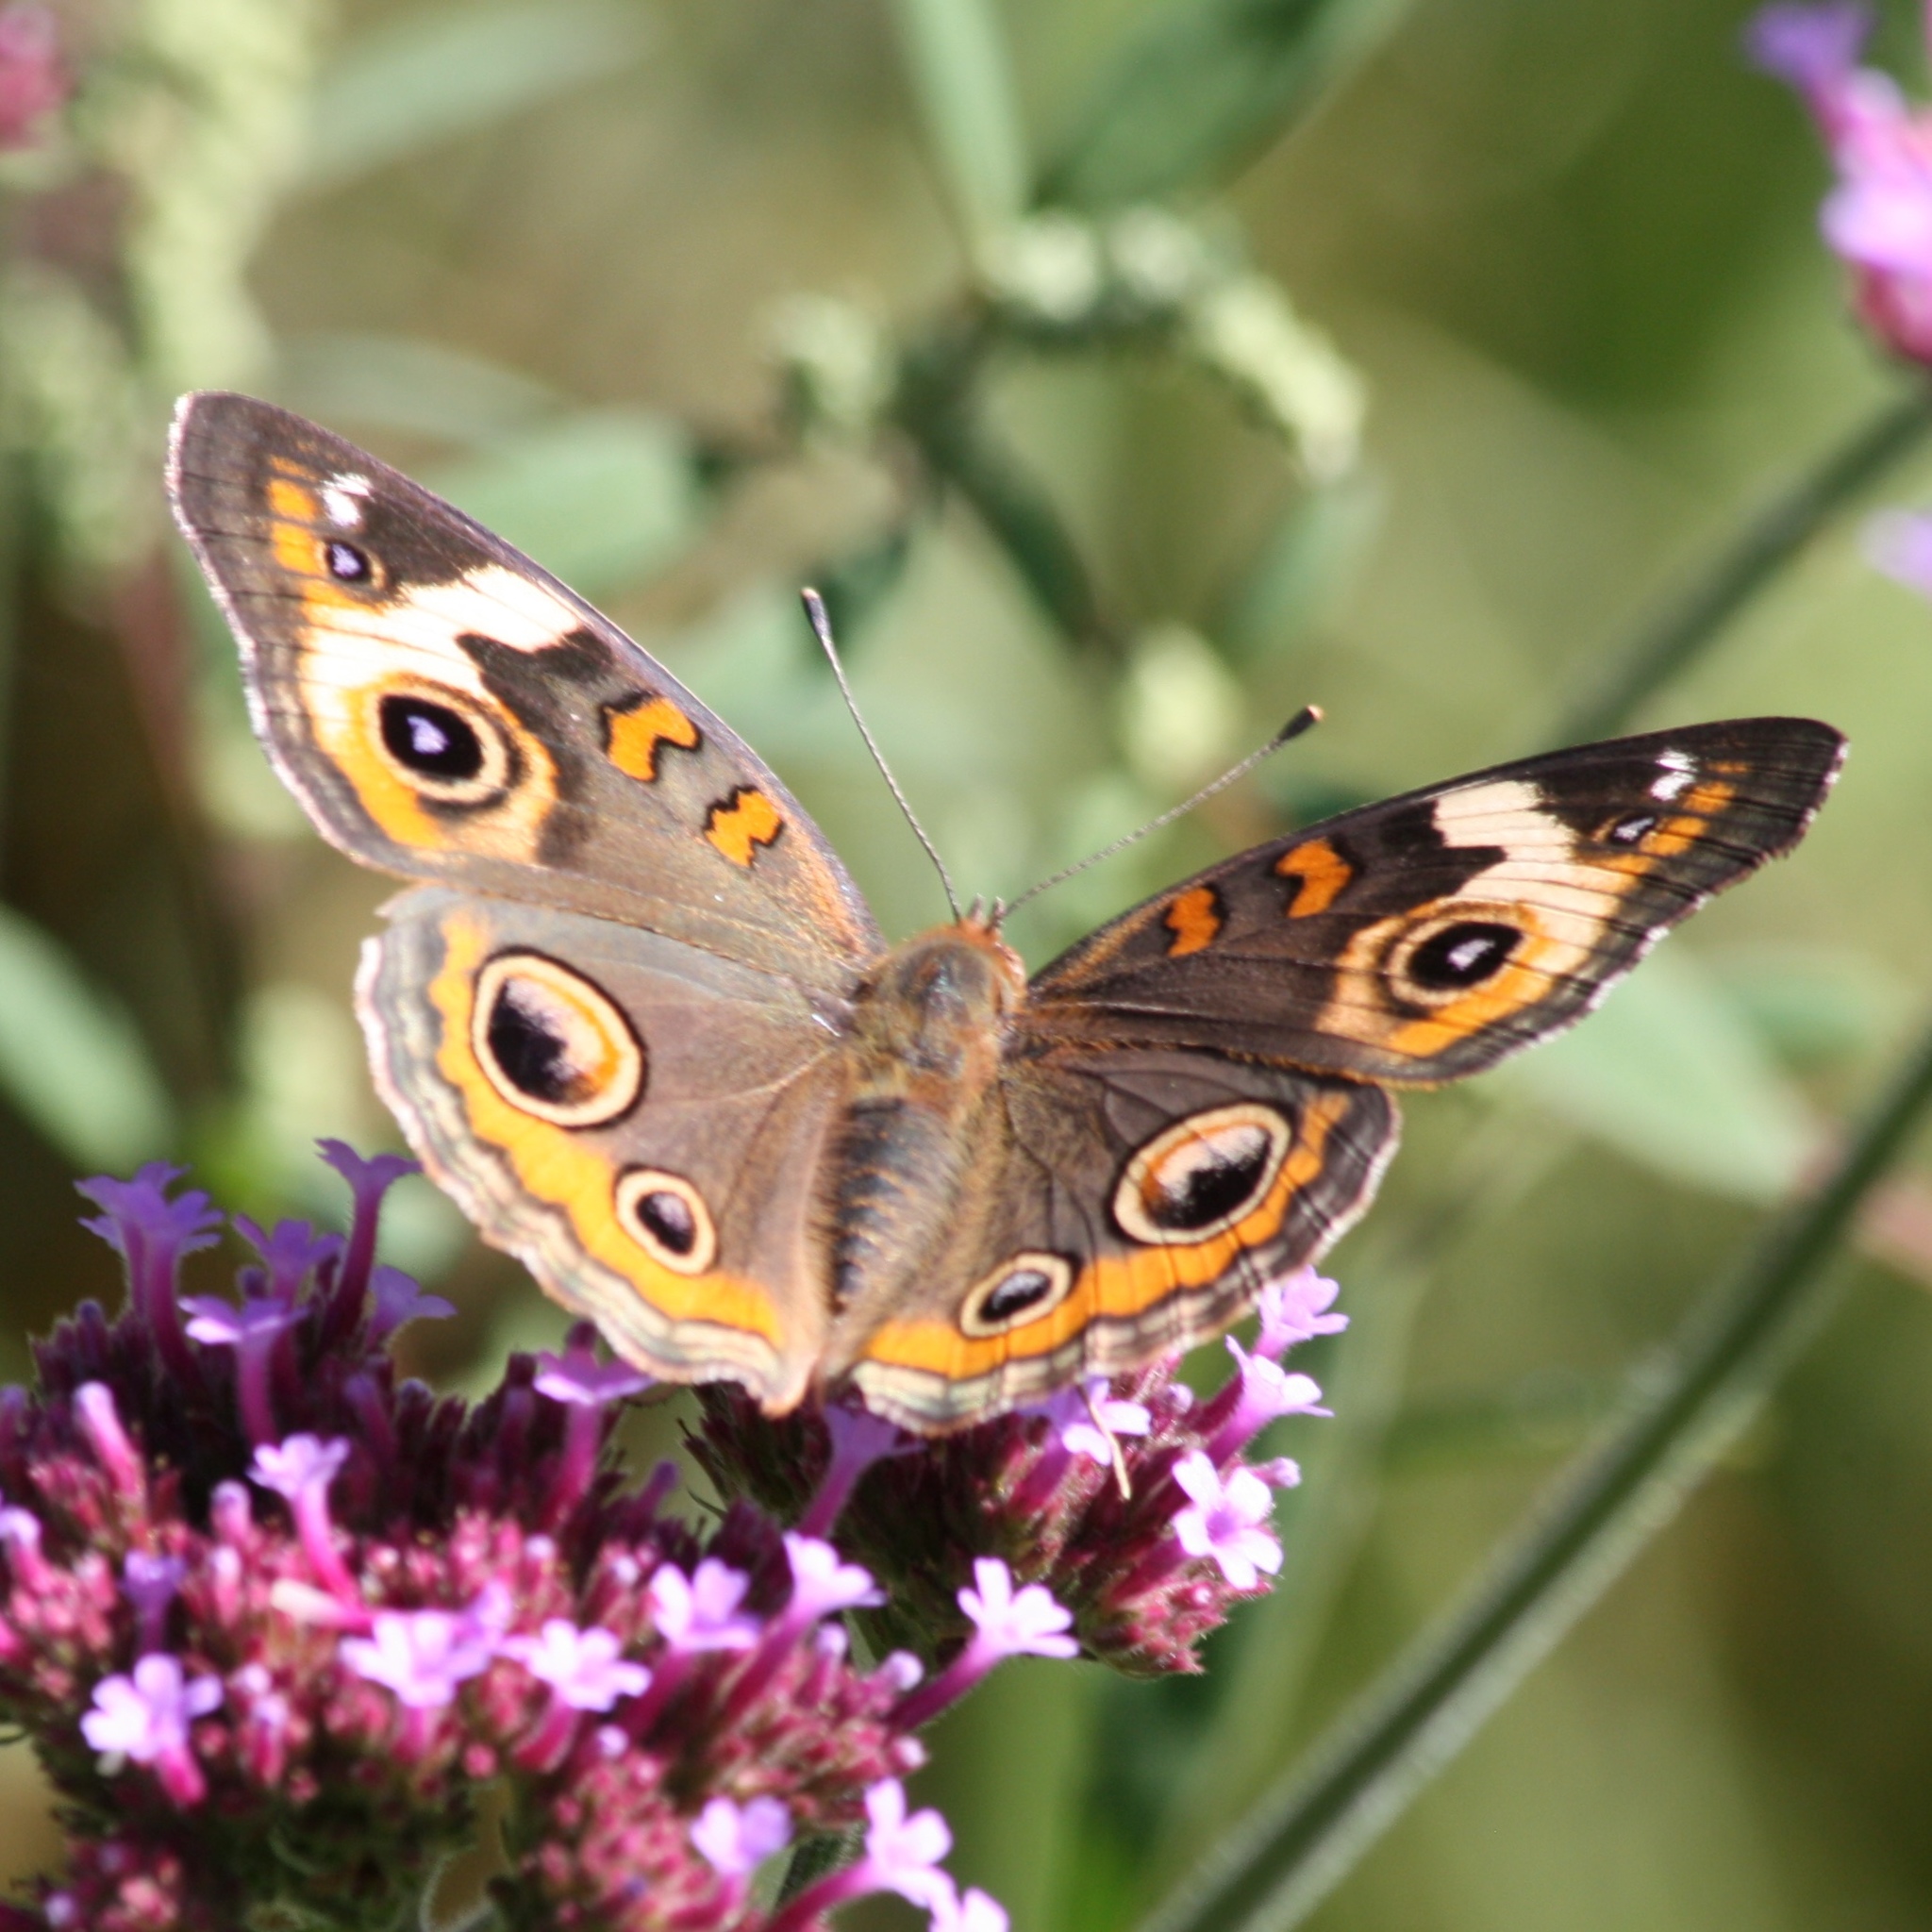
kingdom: Animalia
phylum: Arthropoda
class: Insecta
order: Lepidoptera
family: Nymphalidae
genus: Junonia
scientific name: Junonia coenia
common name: Common buckeye
